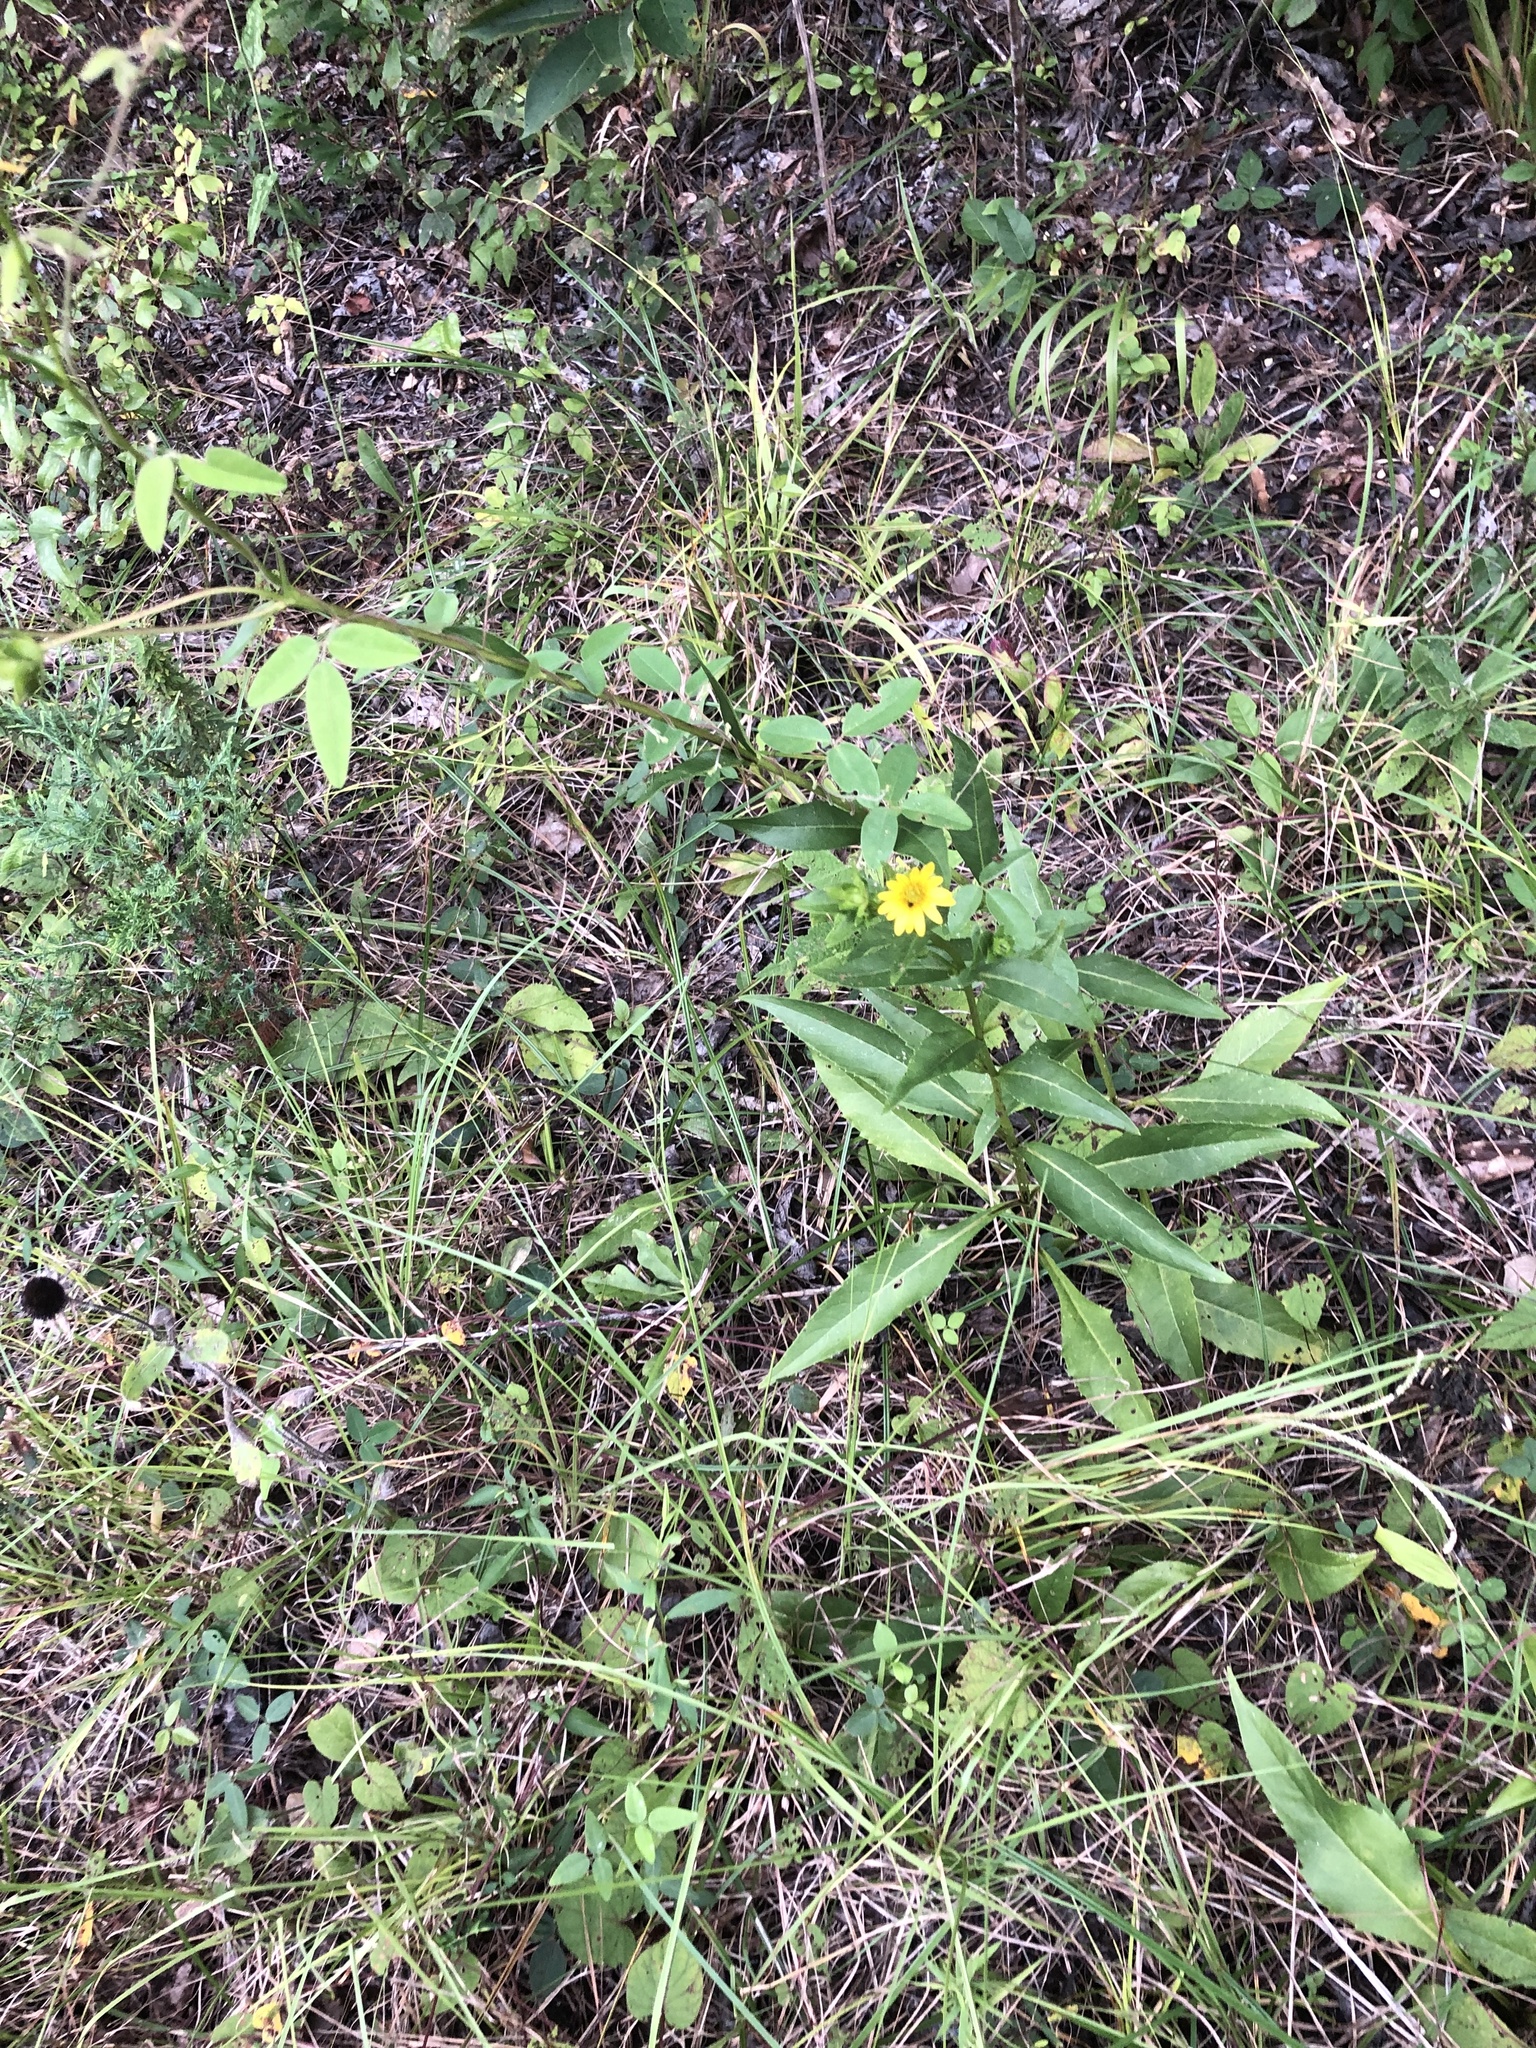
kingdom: Plantae
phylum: Tracheophyta
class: Magnoliopsida
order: Asterales
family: Asteraceae
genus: Silphium
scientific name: Silphium confertifolium
